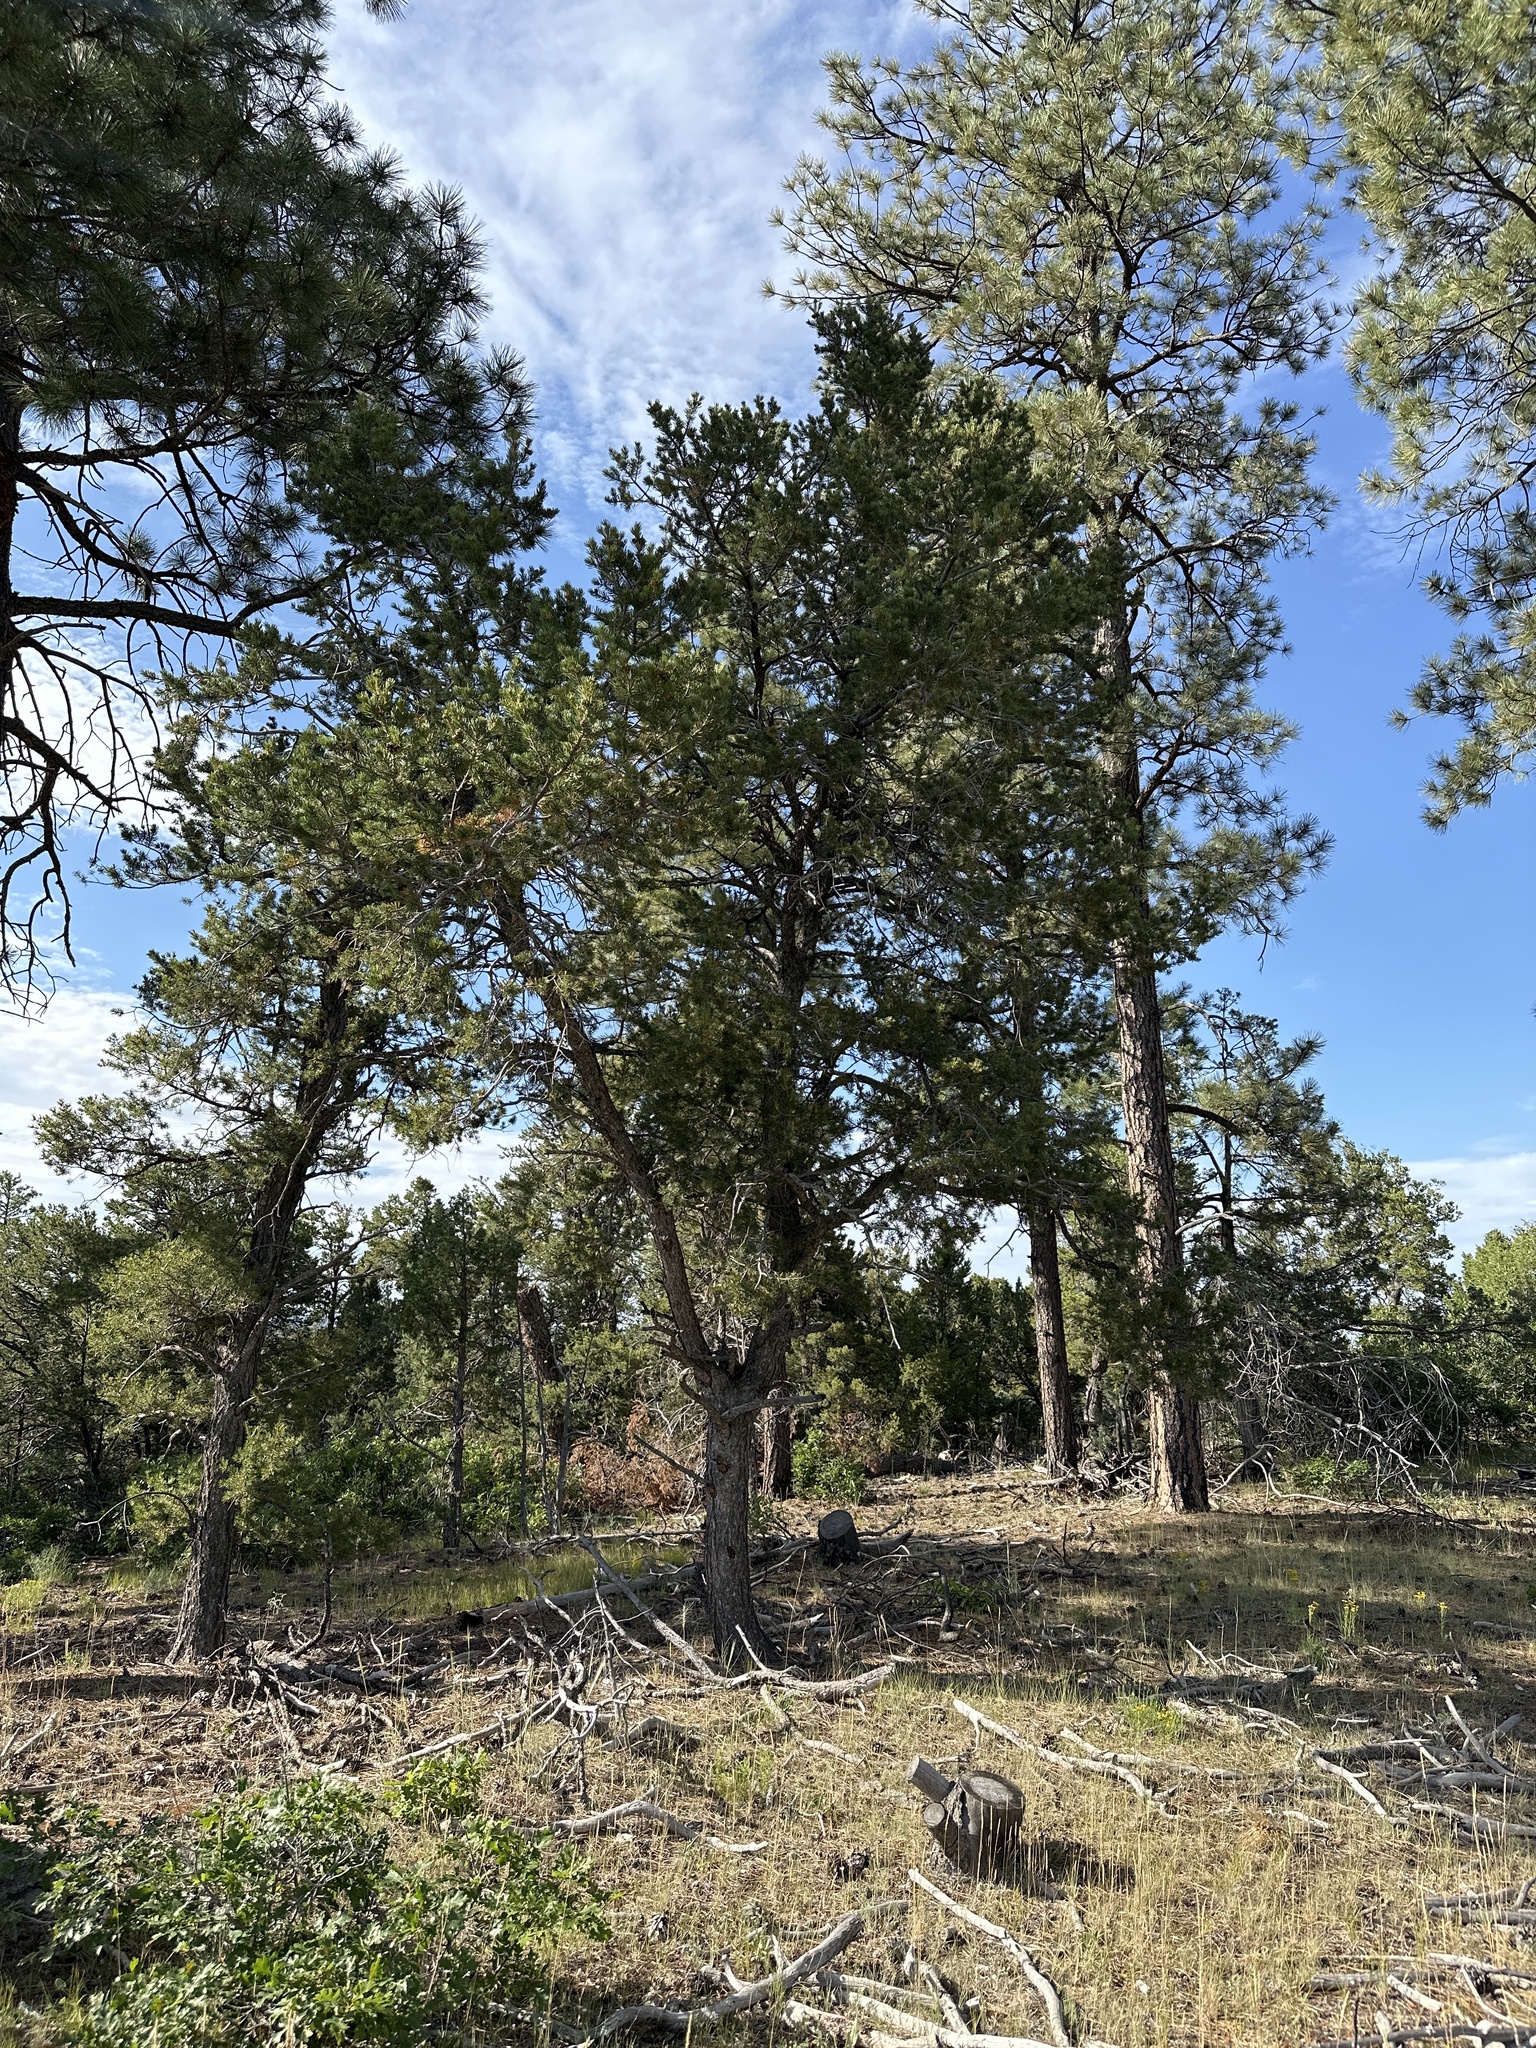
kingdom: Plantae
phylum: Tracheophyta
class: Pinopsida
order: Pinales
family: Pinaceae
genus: Pinus
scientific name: Pinus edulis
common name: Colorado pinyon
